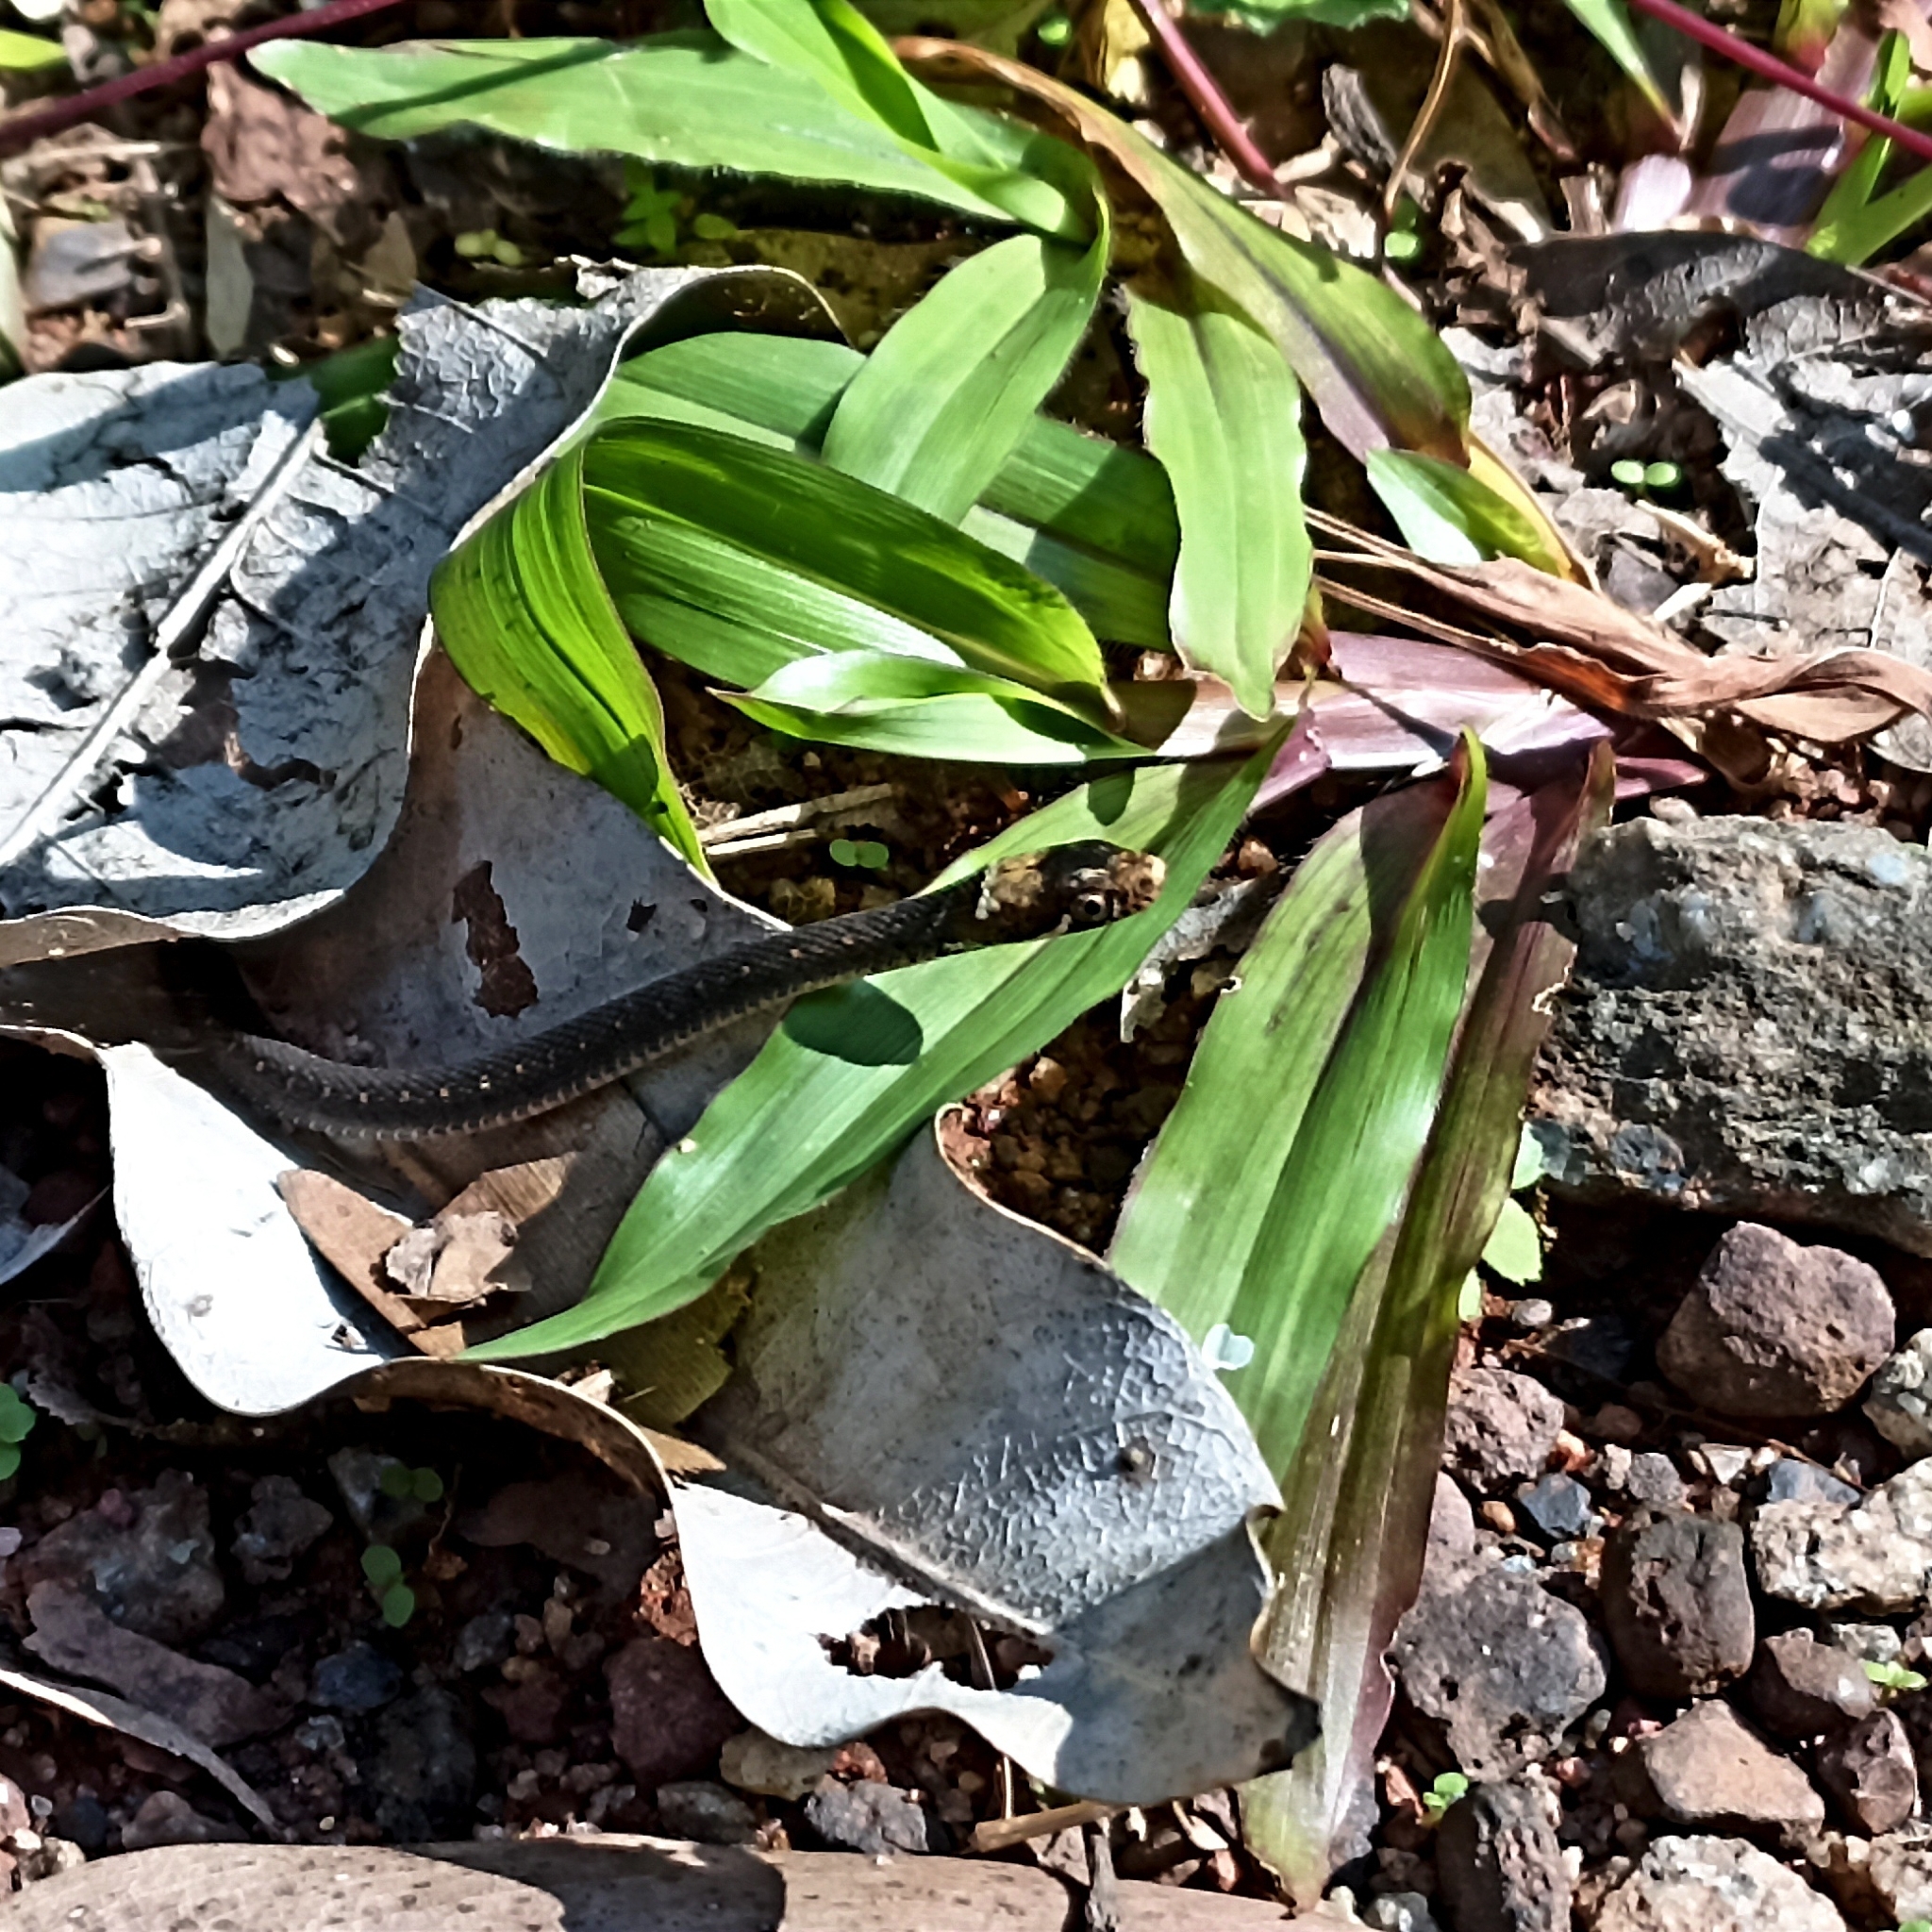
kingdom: Animalia
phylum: Chordata
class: Squamata
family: Colubridae
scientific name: Colubridae
